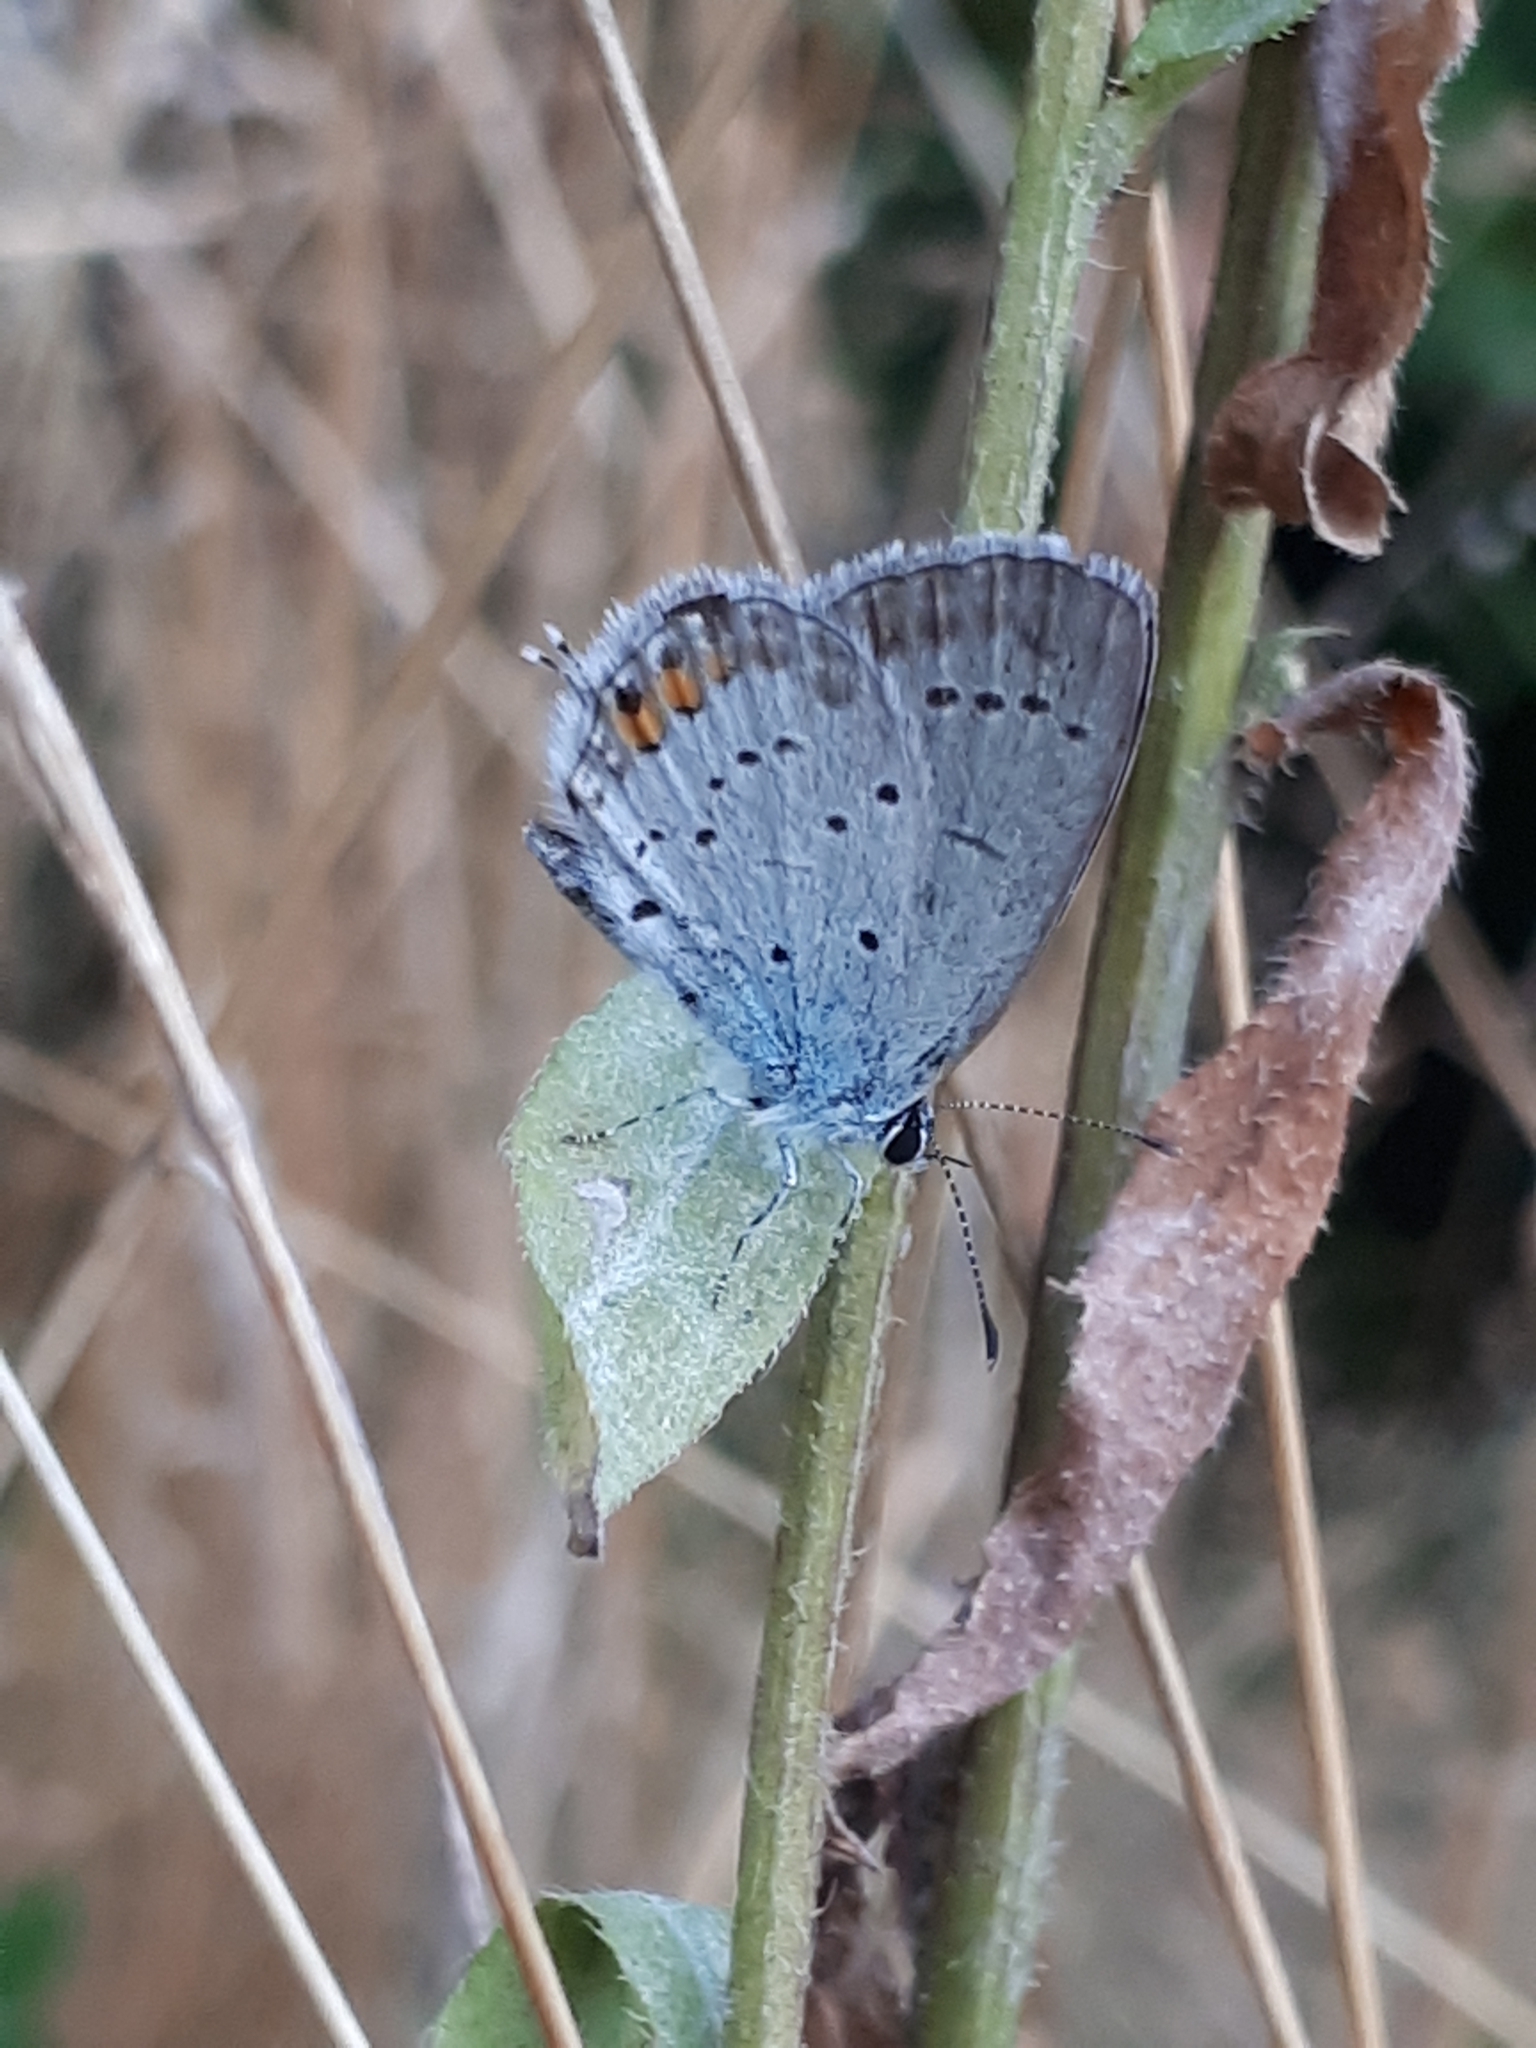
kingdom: Animalia
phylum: Arthropoda
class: Insecta
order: Lepidoptera
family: Lycaenidae
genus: Elkalyce
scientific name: Elkalyce argiades
